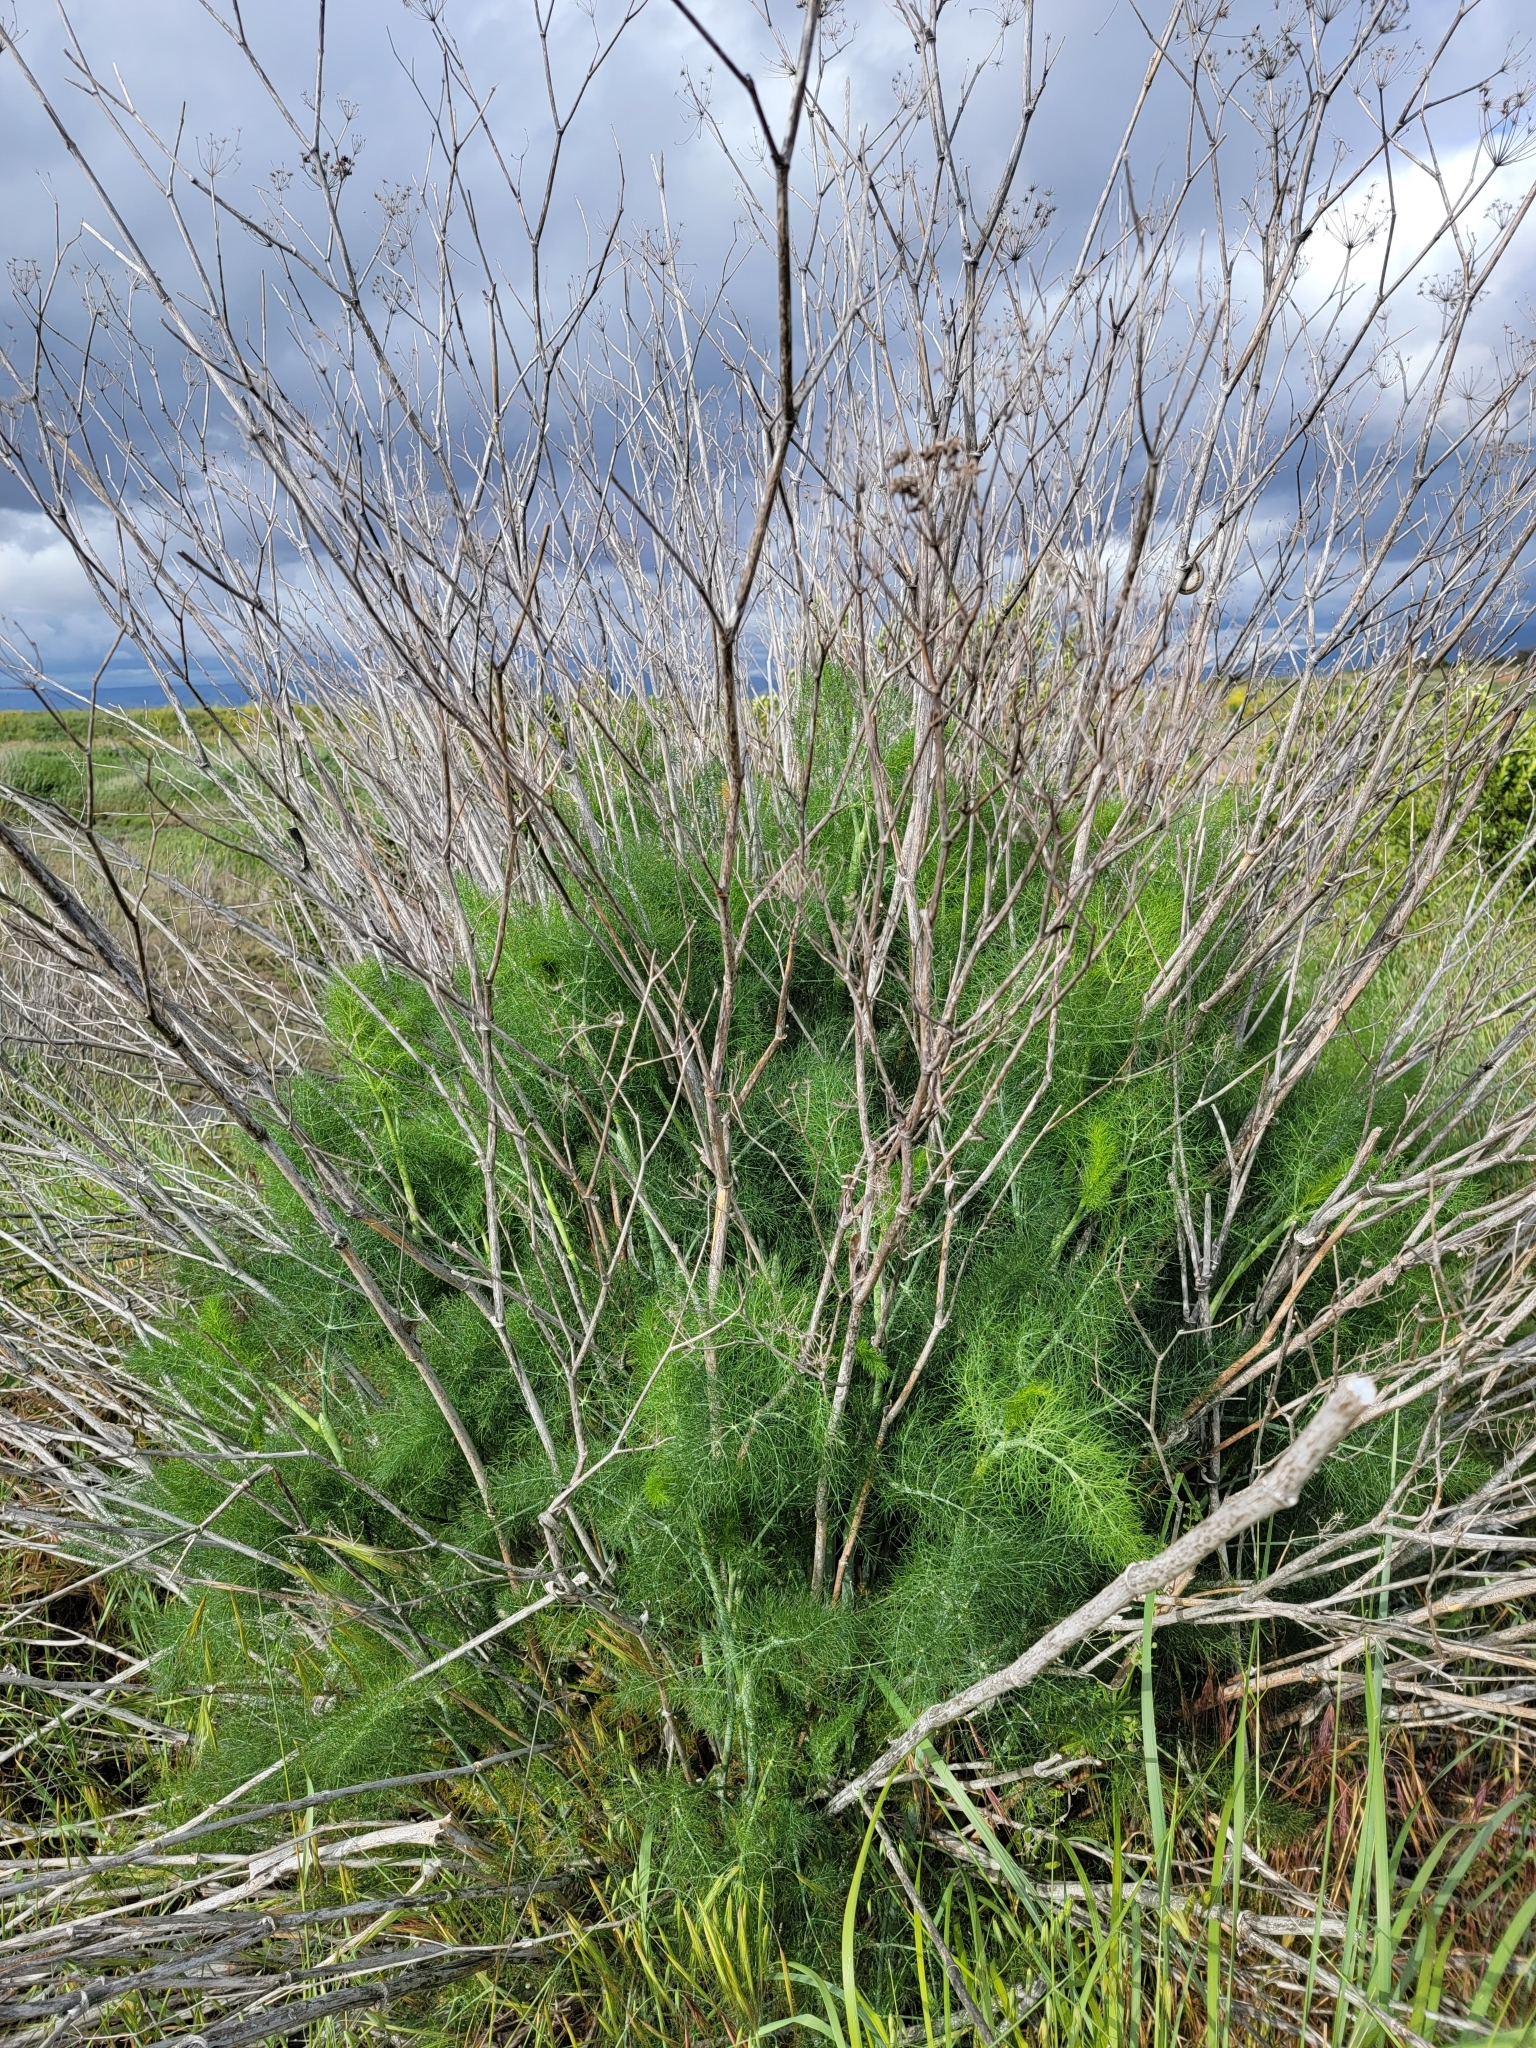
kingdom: Plantae
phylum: Tracheophyta
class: Magnoliopsida
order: Apiales
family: Apiaceae
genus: Foeniculum
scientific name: Foeniculum vulgare
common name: Fennel
